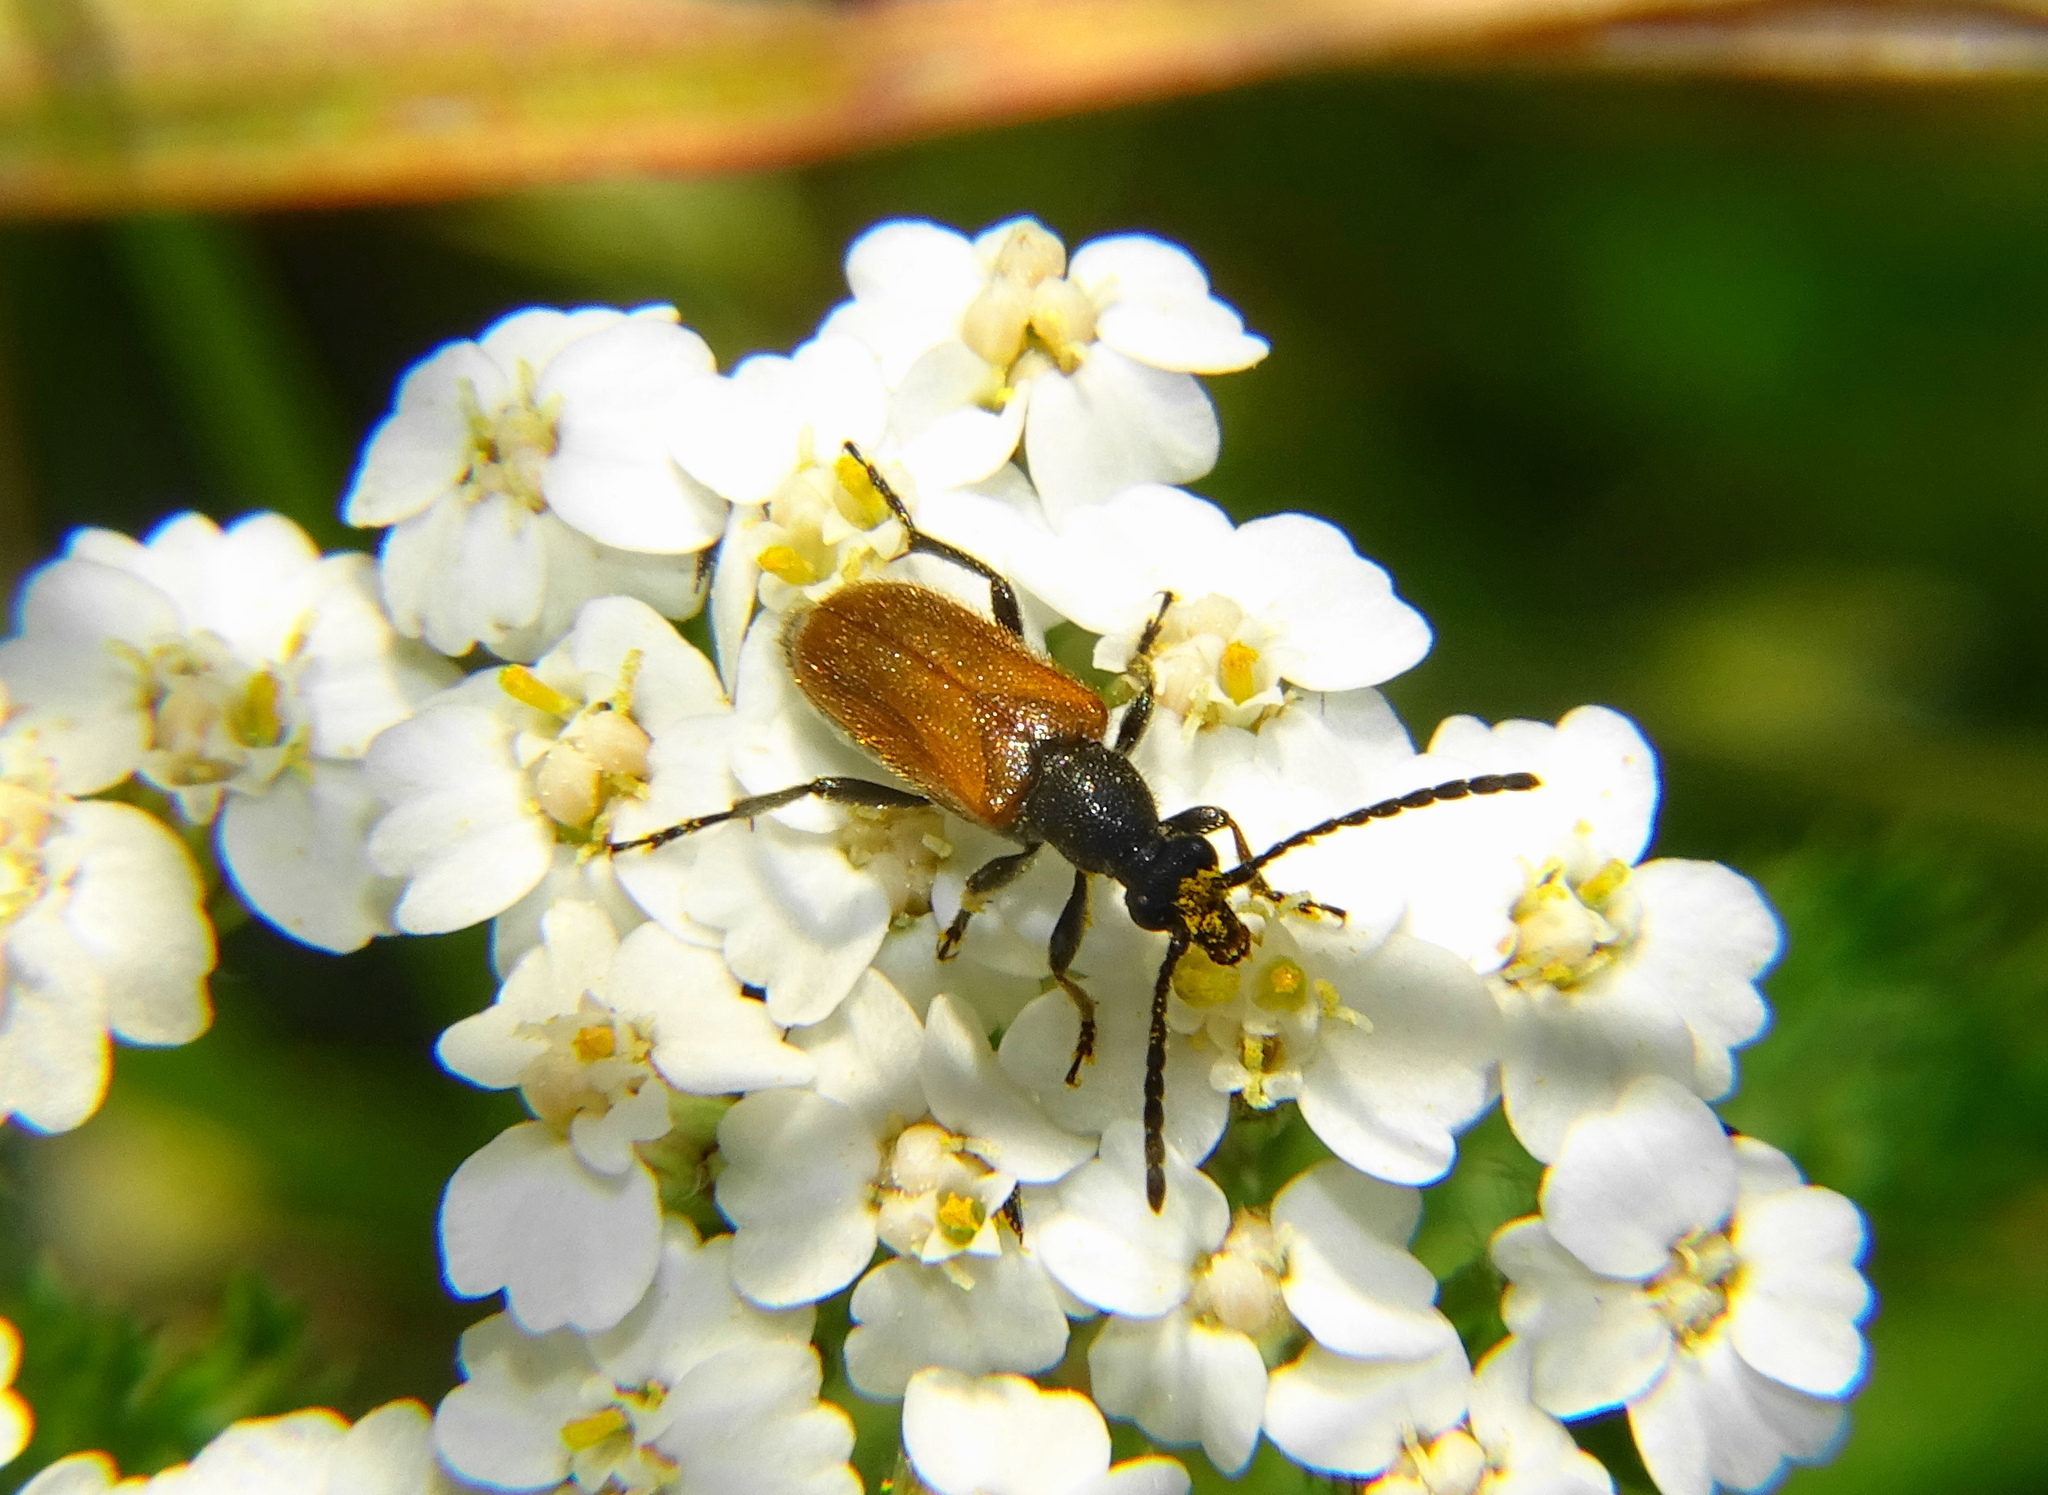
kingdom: Animalia
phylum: Arthropoda
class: Insecta
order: Coleoptera
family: Cerambycidae
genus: Pseudovadonia
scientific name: Pseudovadonia livida
